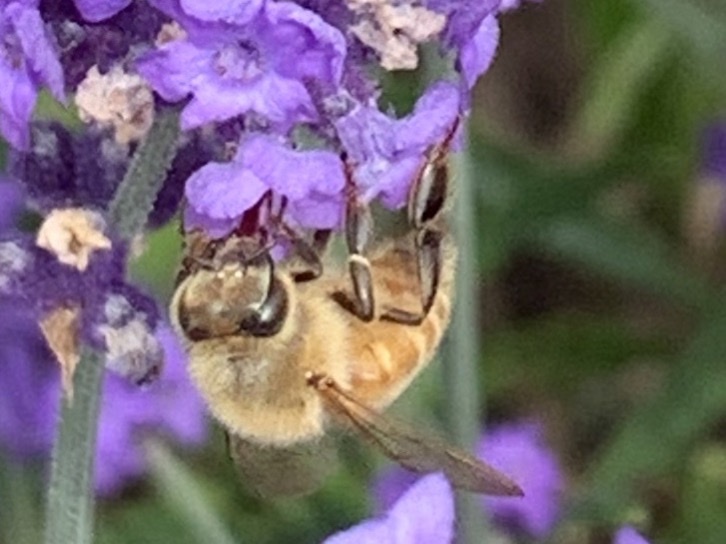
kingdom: Animalia
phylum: Arthropoda
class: Insecta
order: Hymenoptera
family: Apidae
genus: Apis
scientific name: Apis mellifera
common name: Honey bee
